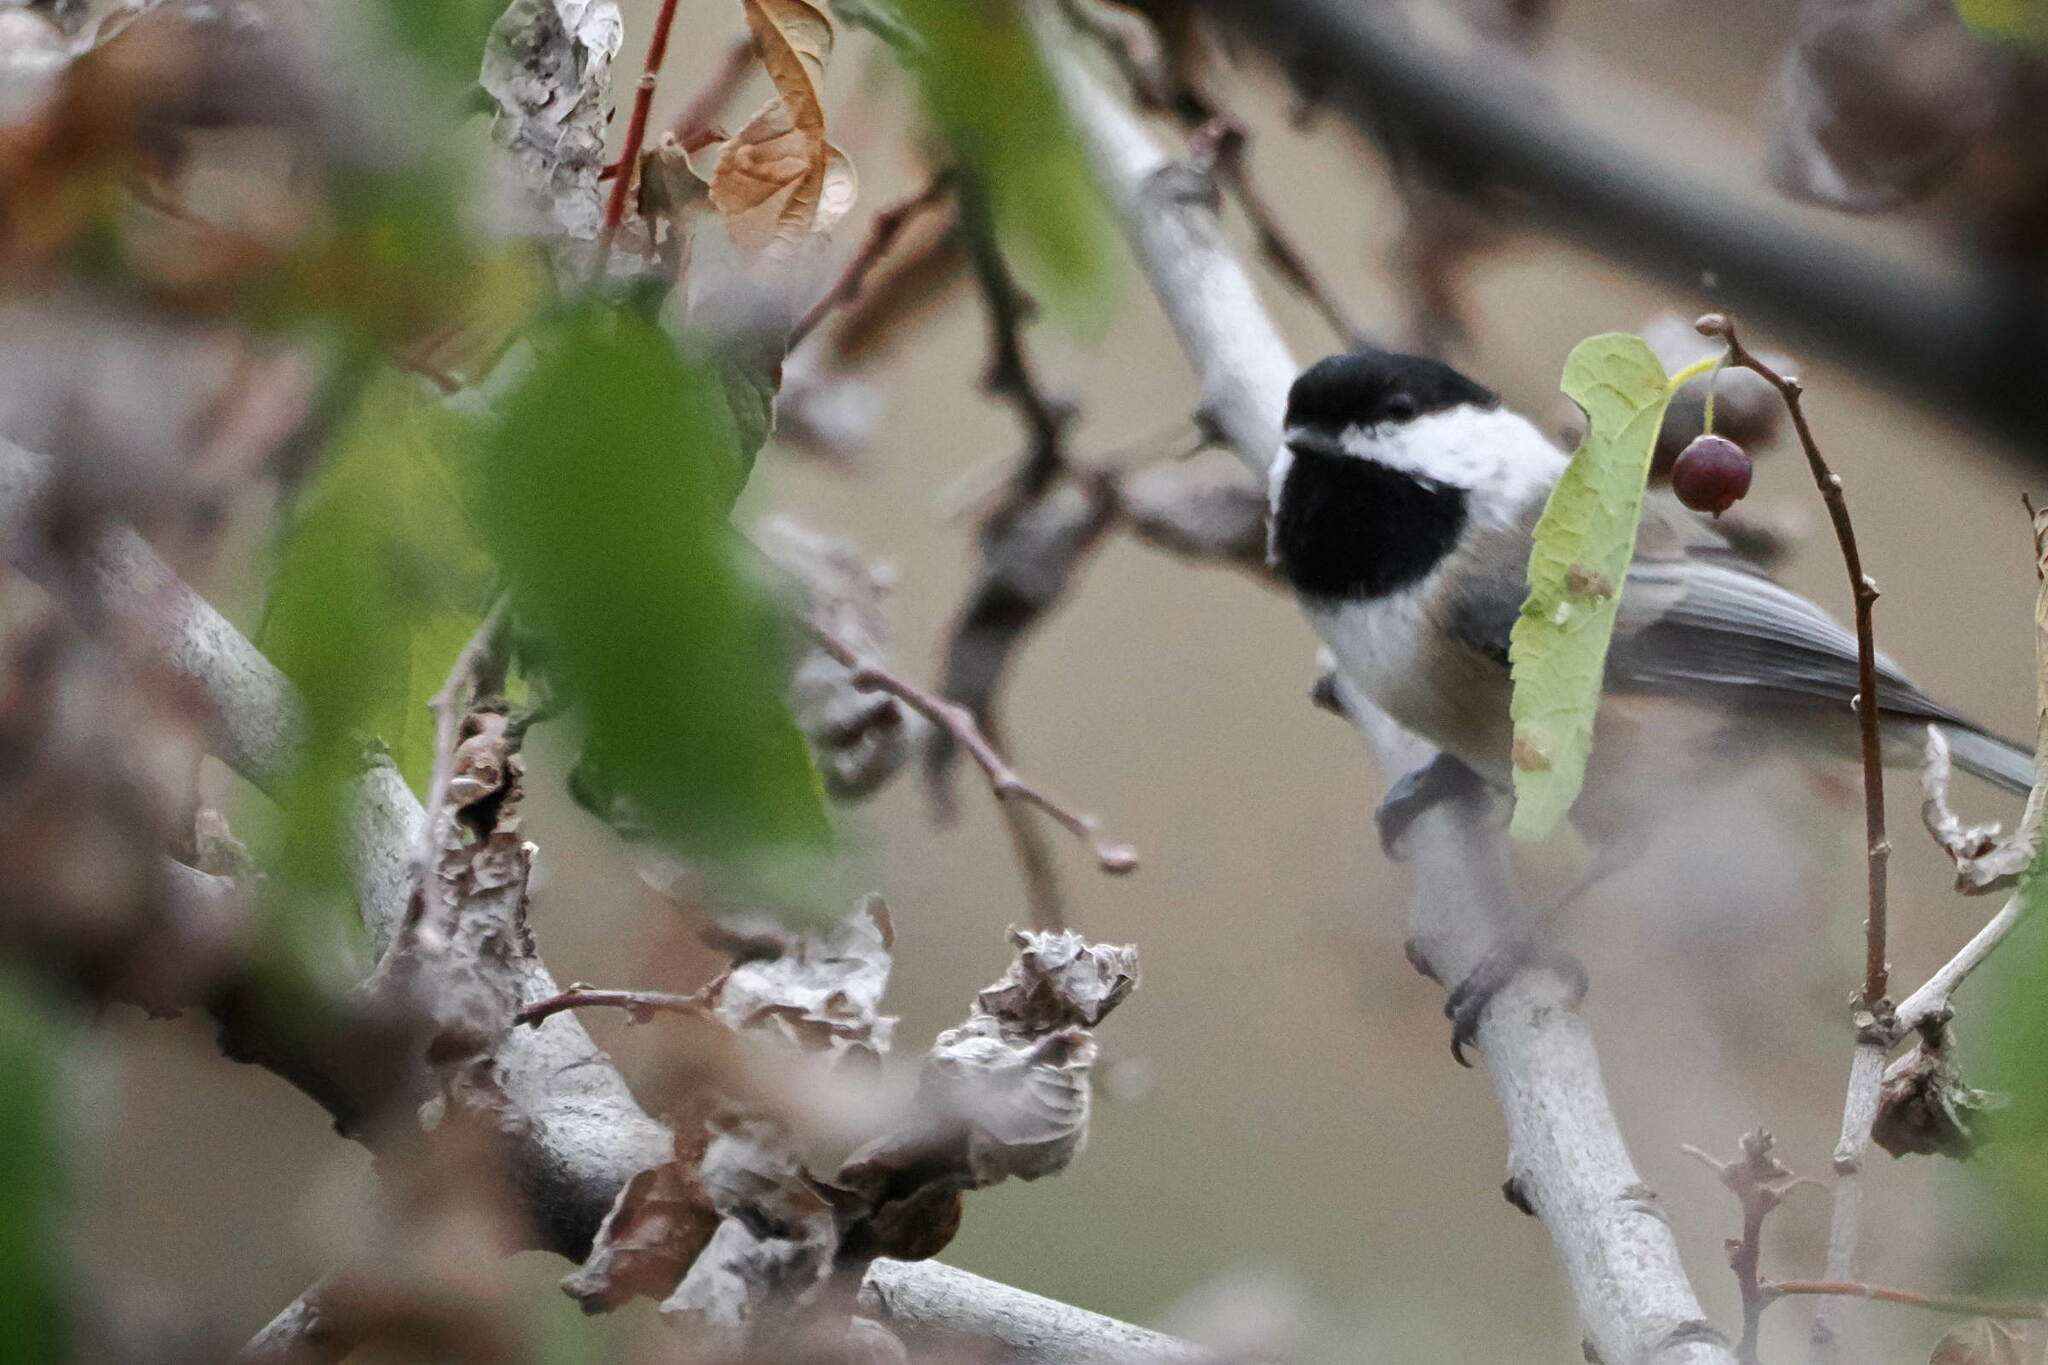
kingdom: Animalia
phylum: Chordata
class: Aves
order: Passeriformes
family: Paridae
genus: Poecile
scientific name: Poecile atricapillus
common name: Black-capped chickadee
